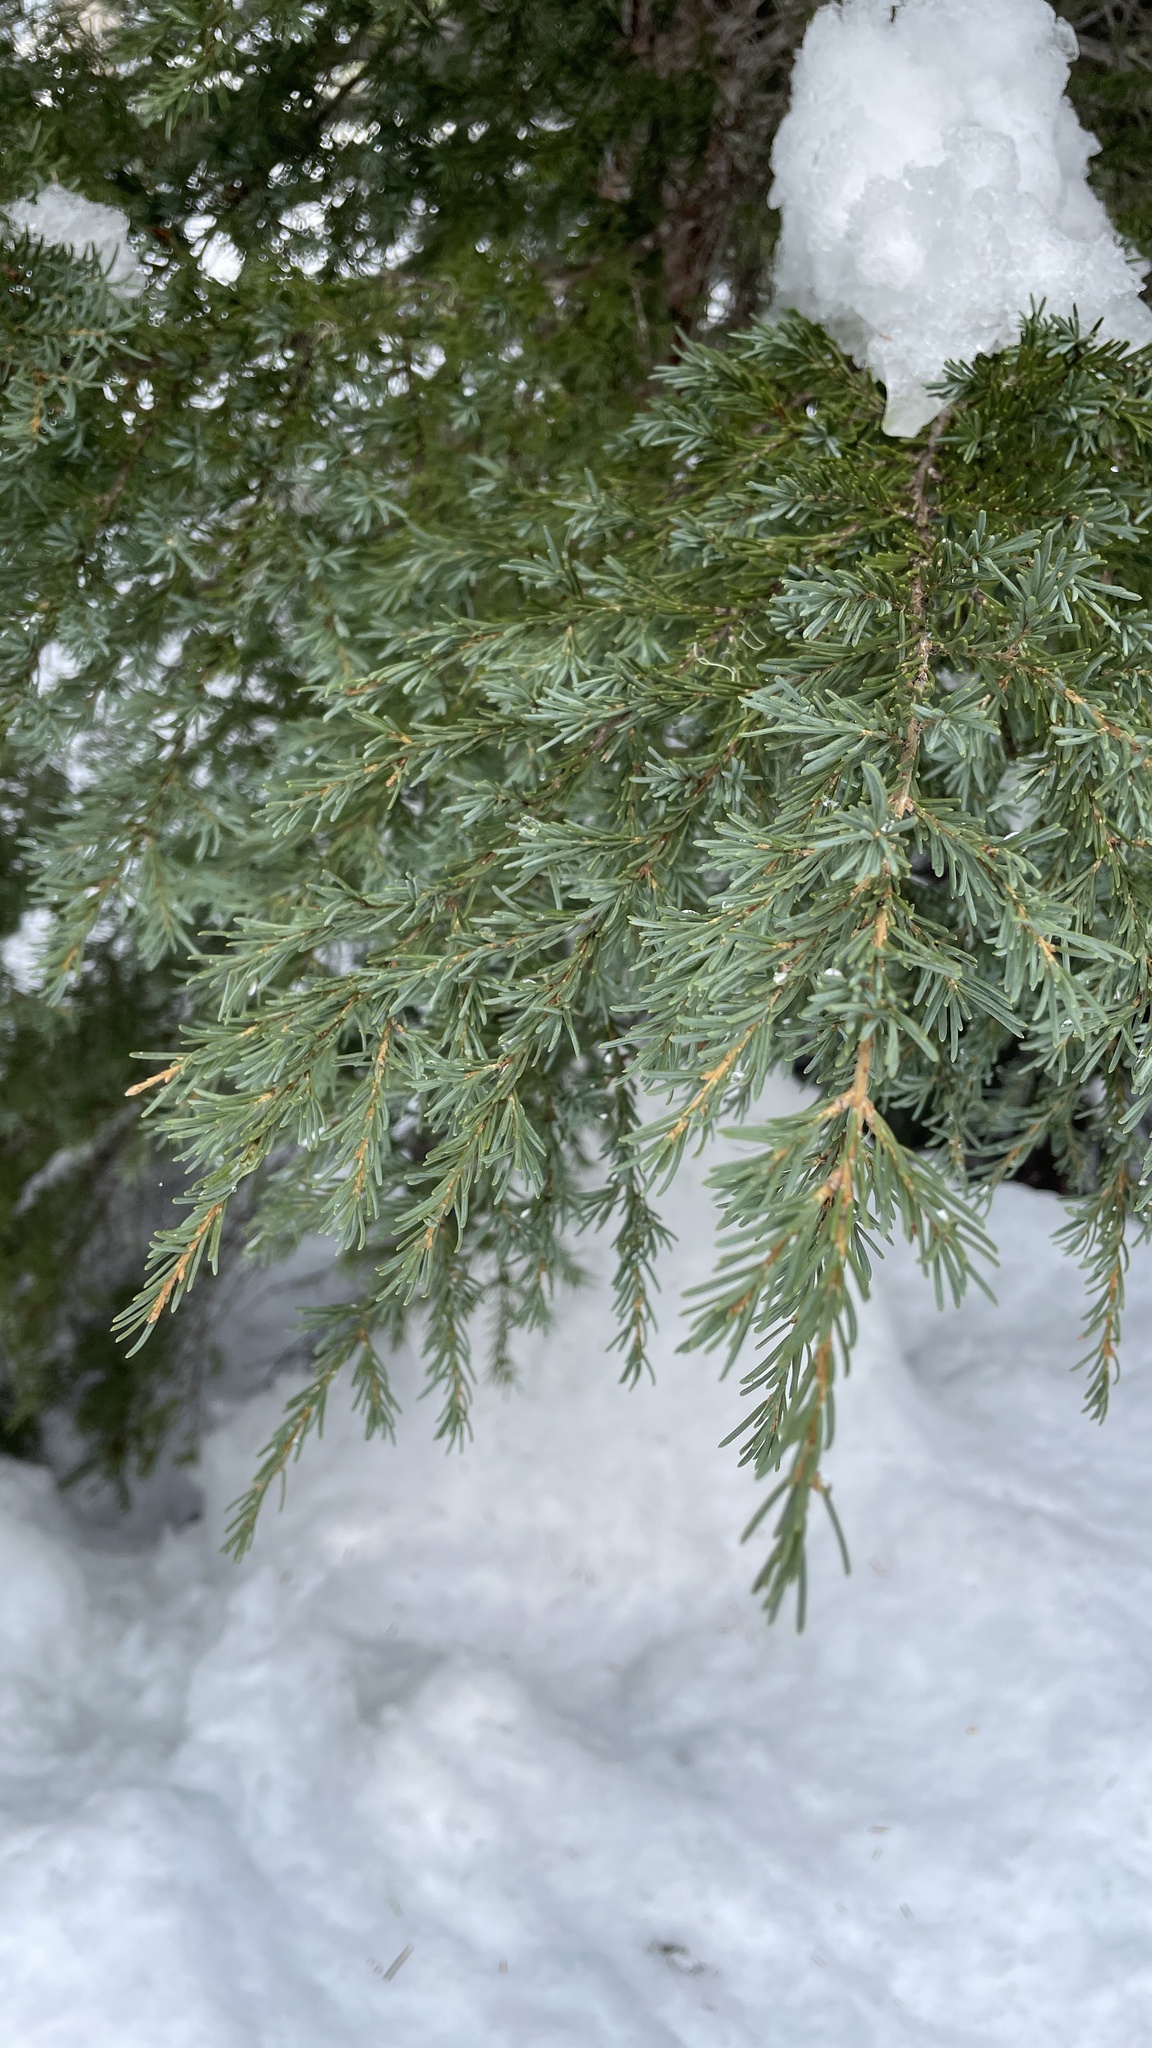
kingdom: Plantae
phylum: Tracheophyta
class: Pinopsida
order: Pinales
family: Pinaceae
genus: Tsuga
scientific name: Tsuga mertensiana
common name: Mountain hemlock
